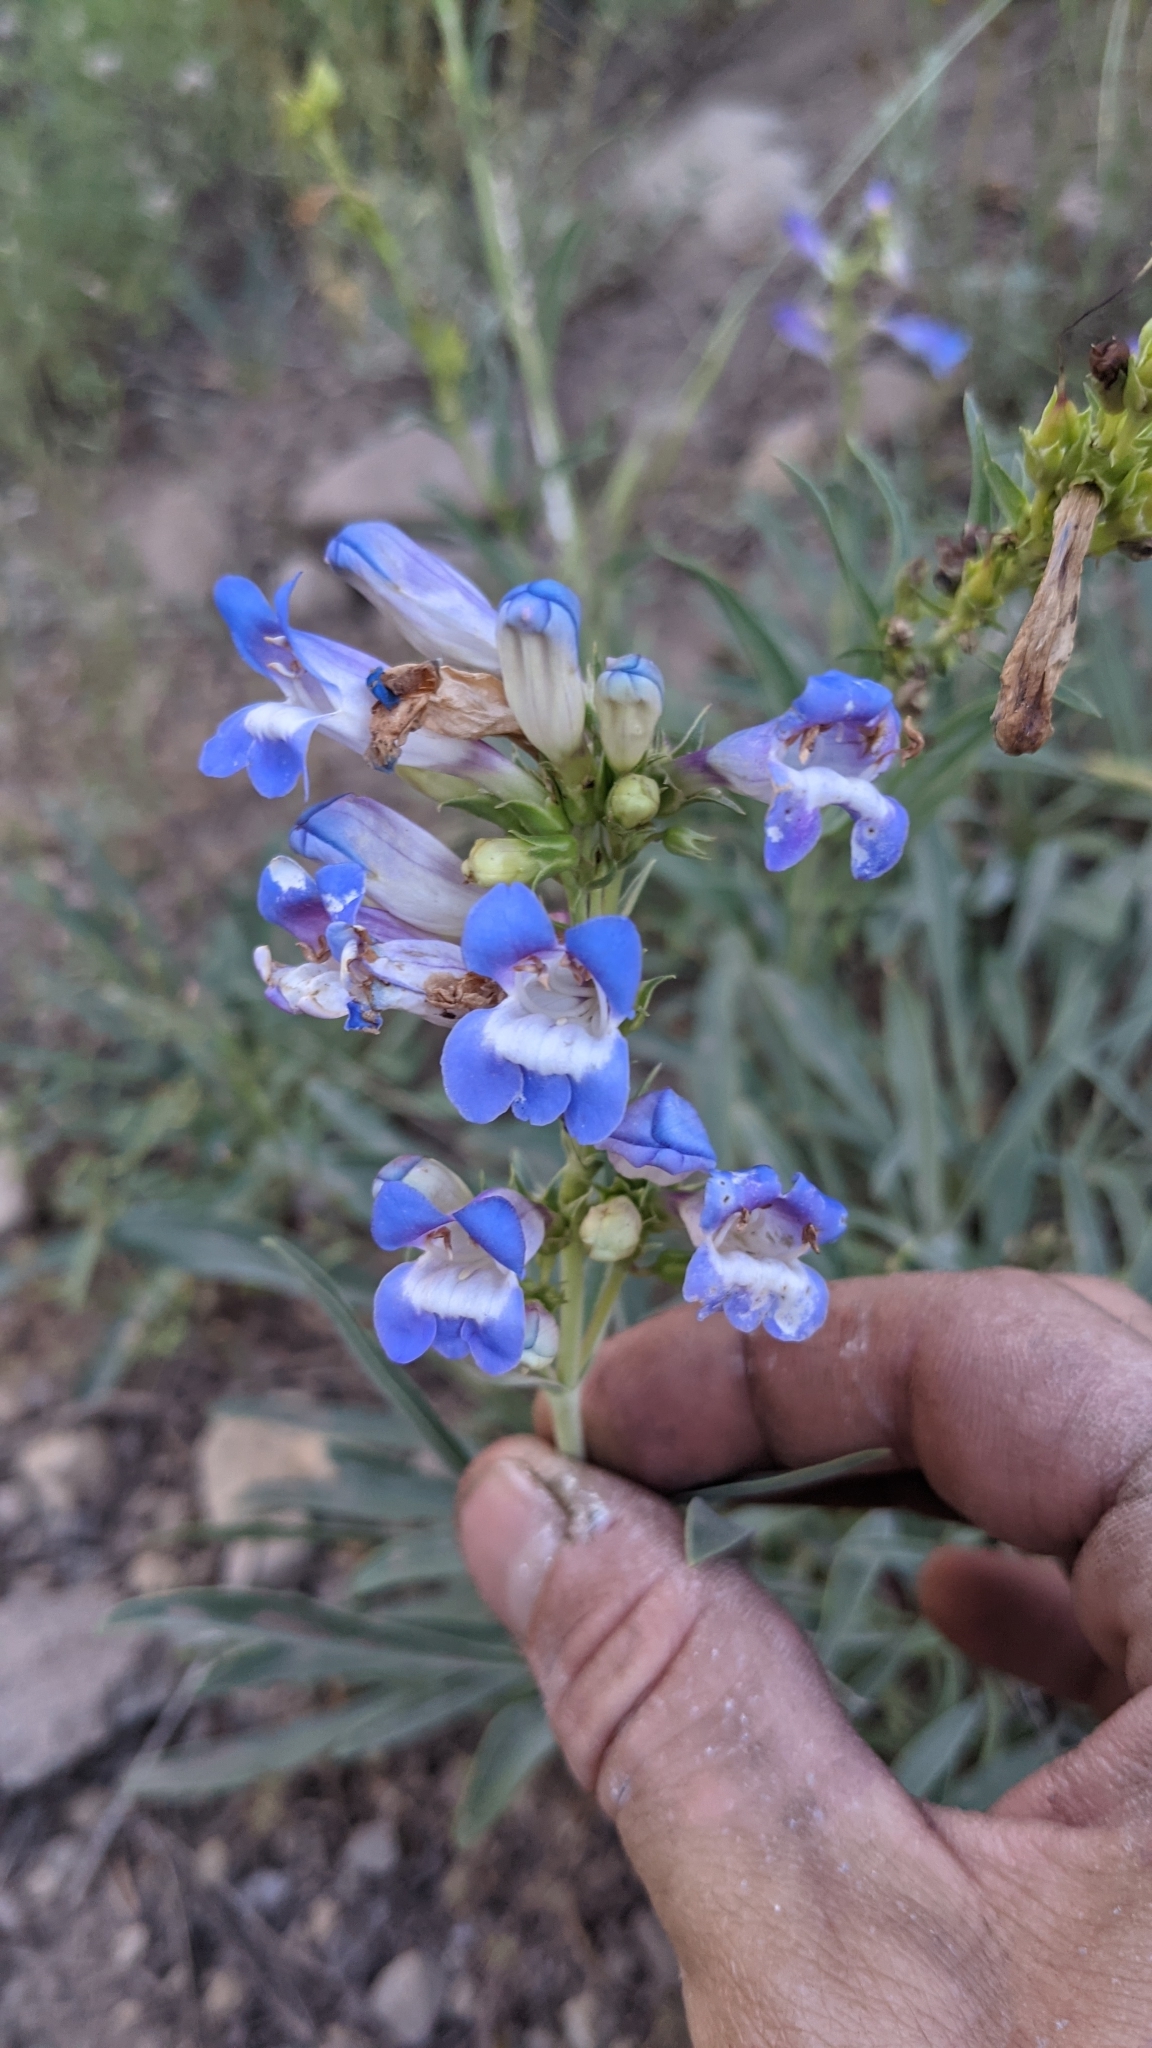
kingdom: Plantae
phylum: Tracheophyta
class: Magnoliopsida
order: Lamiales
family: Plantaginaceae
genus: Penstemon
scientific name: Penstemon speciosus
